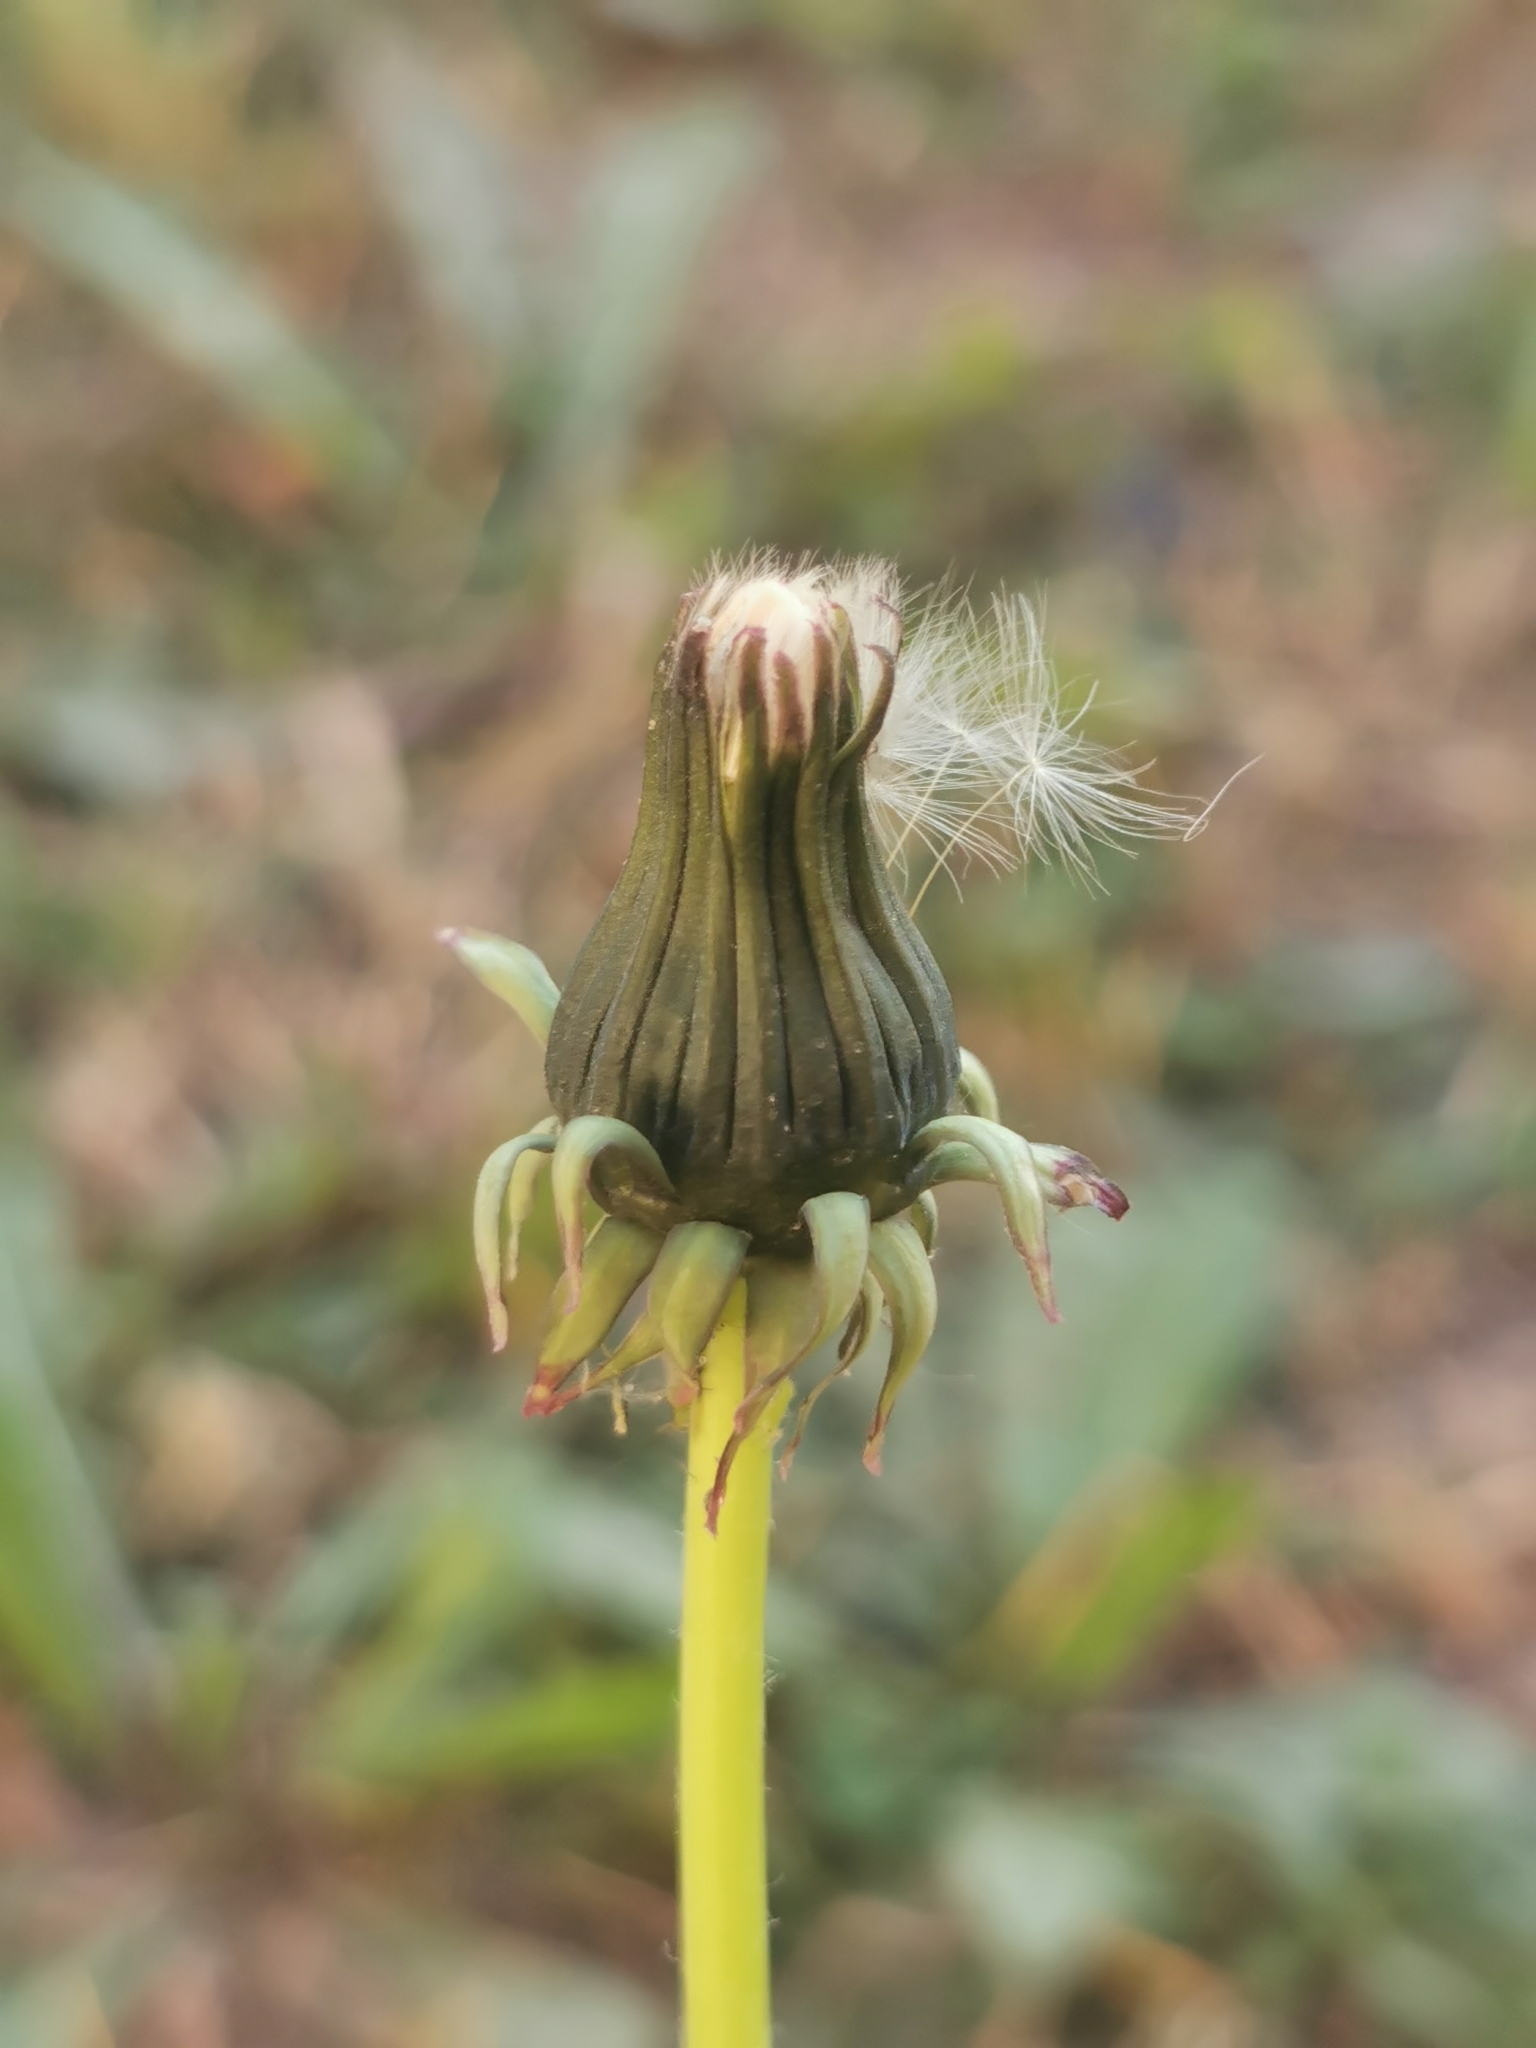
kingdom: Plantae
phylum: Tracheophyta
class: Magnoliopsida
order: Asterales
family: Asteraceae
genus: Taraxacum
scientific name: Taraxacum officinale
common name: Common dandelion
